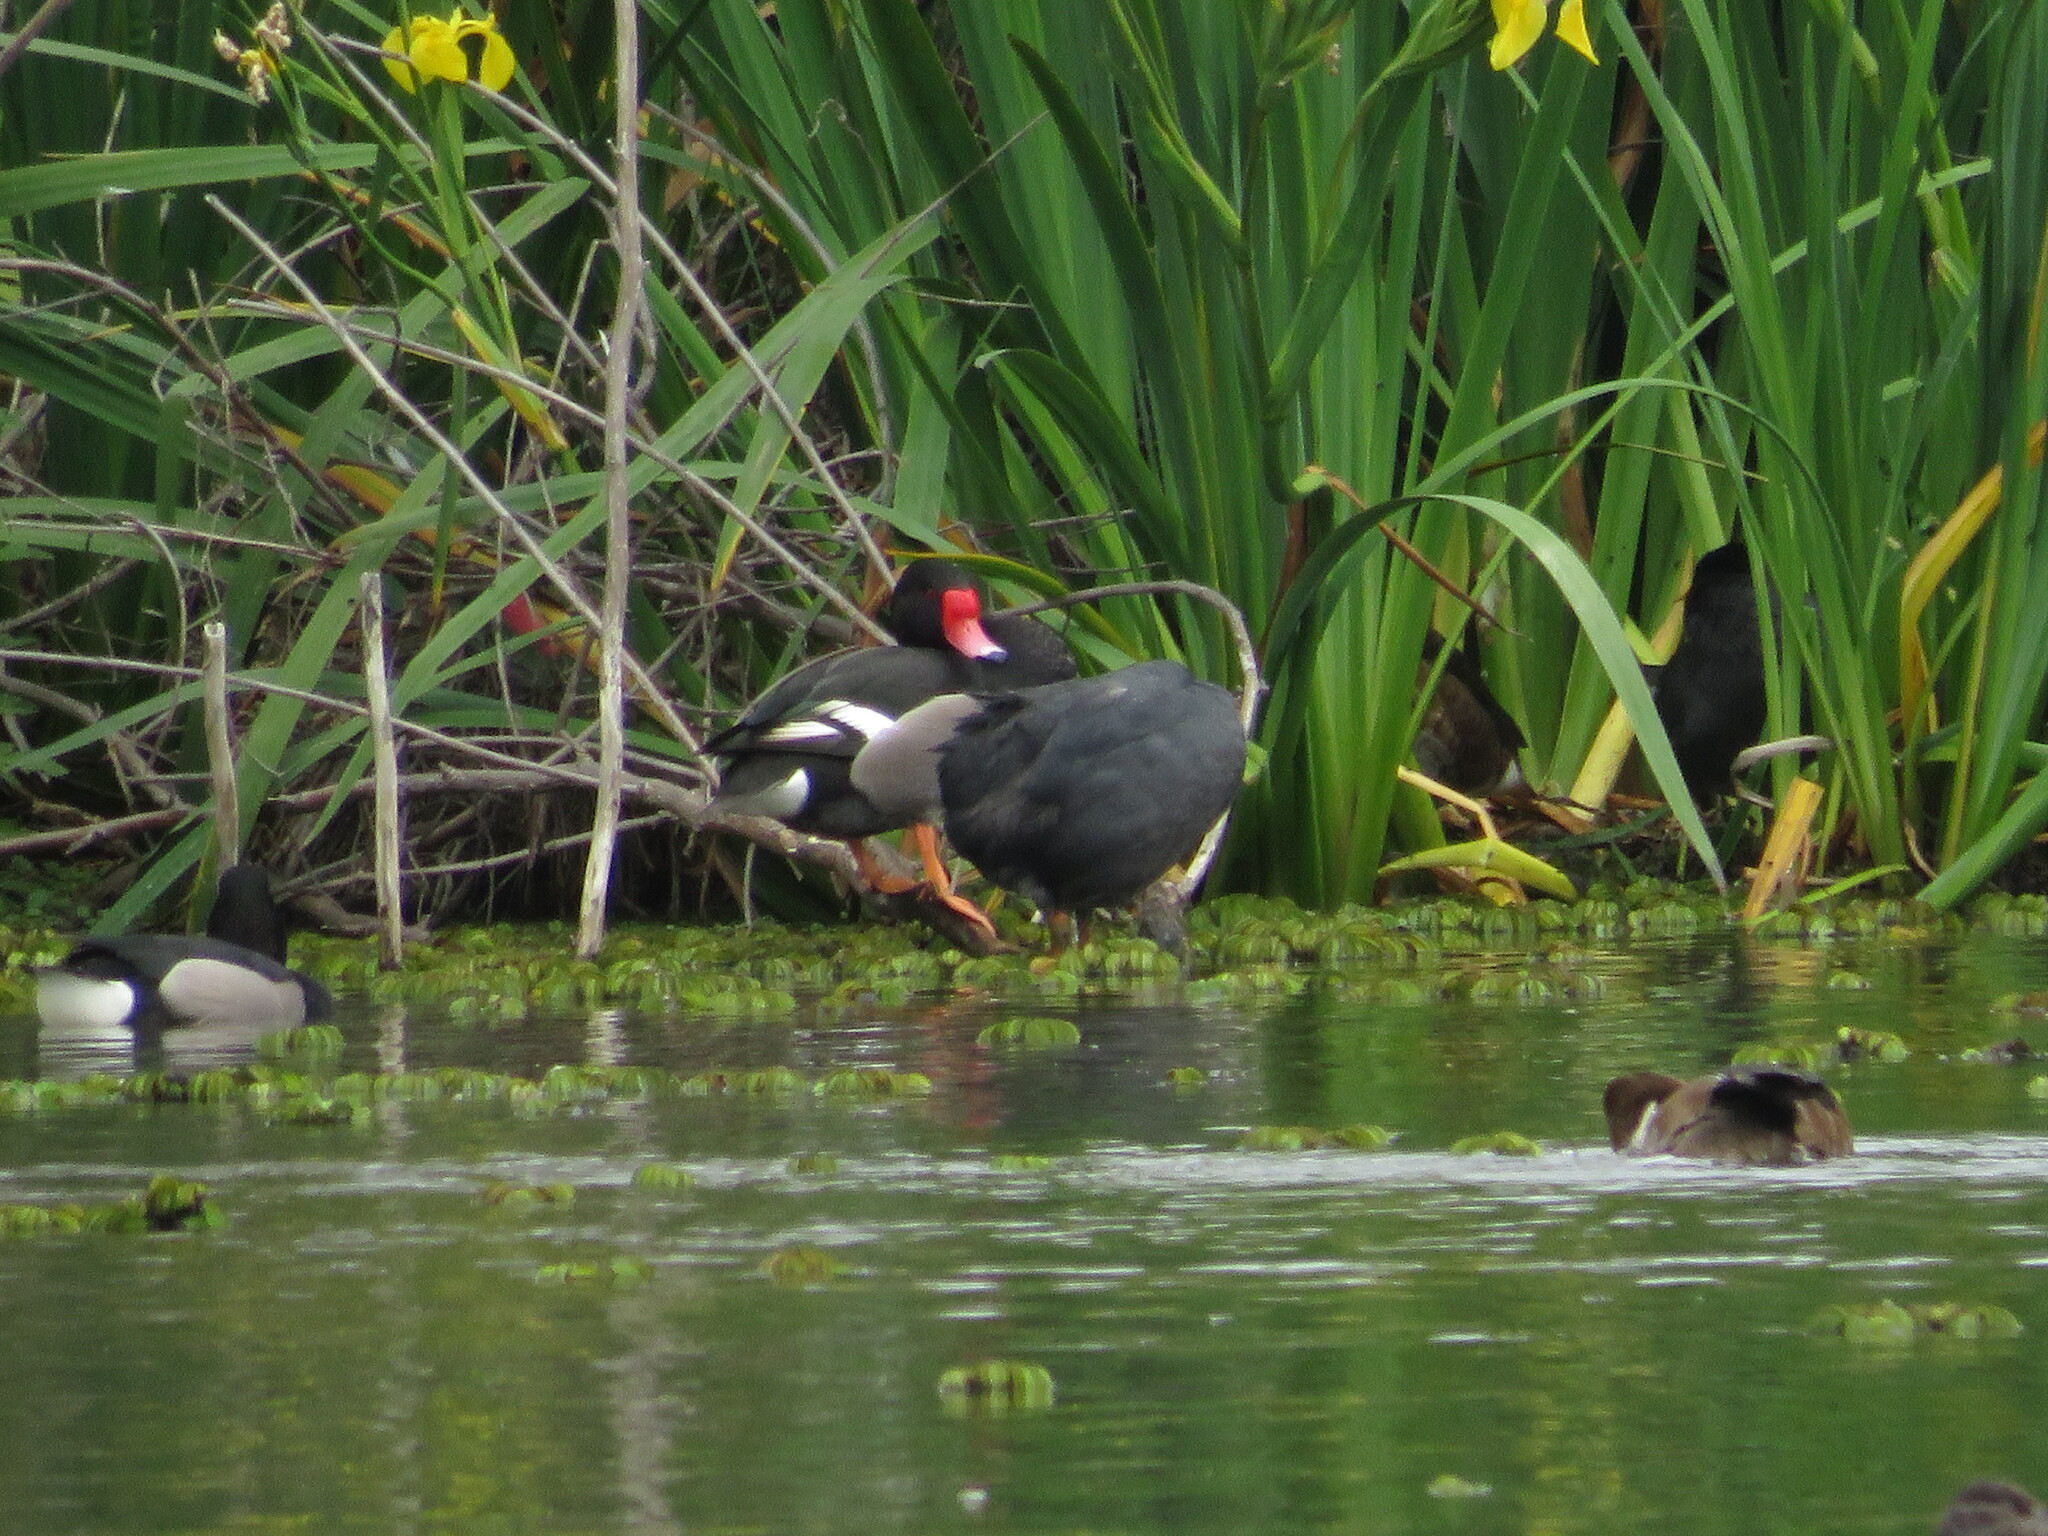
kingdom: Animalia
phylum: Chordata
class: Aves
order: Anseriformes
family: Anatidae
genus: Netta
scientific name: Netta peposaca
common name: Rosy-billed pochard
